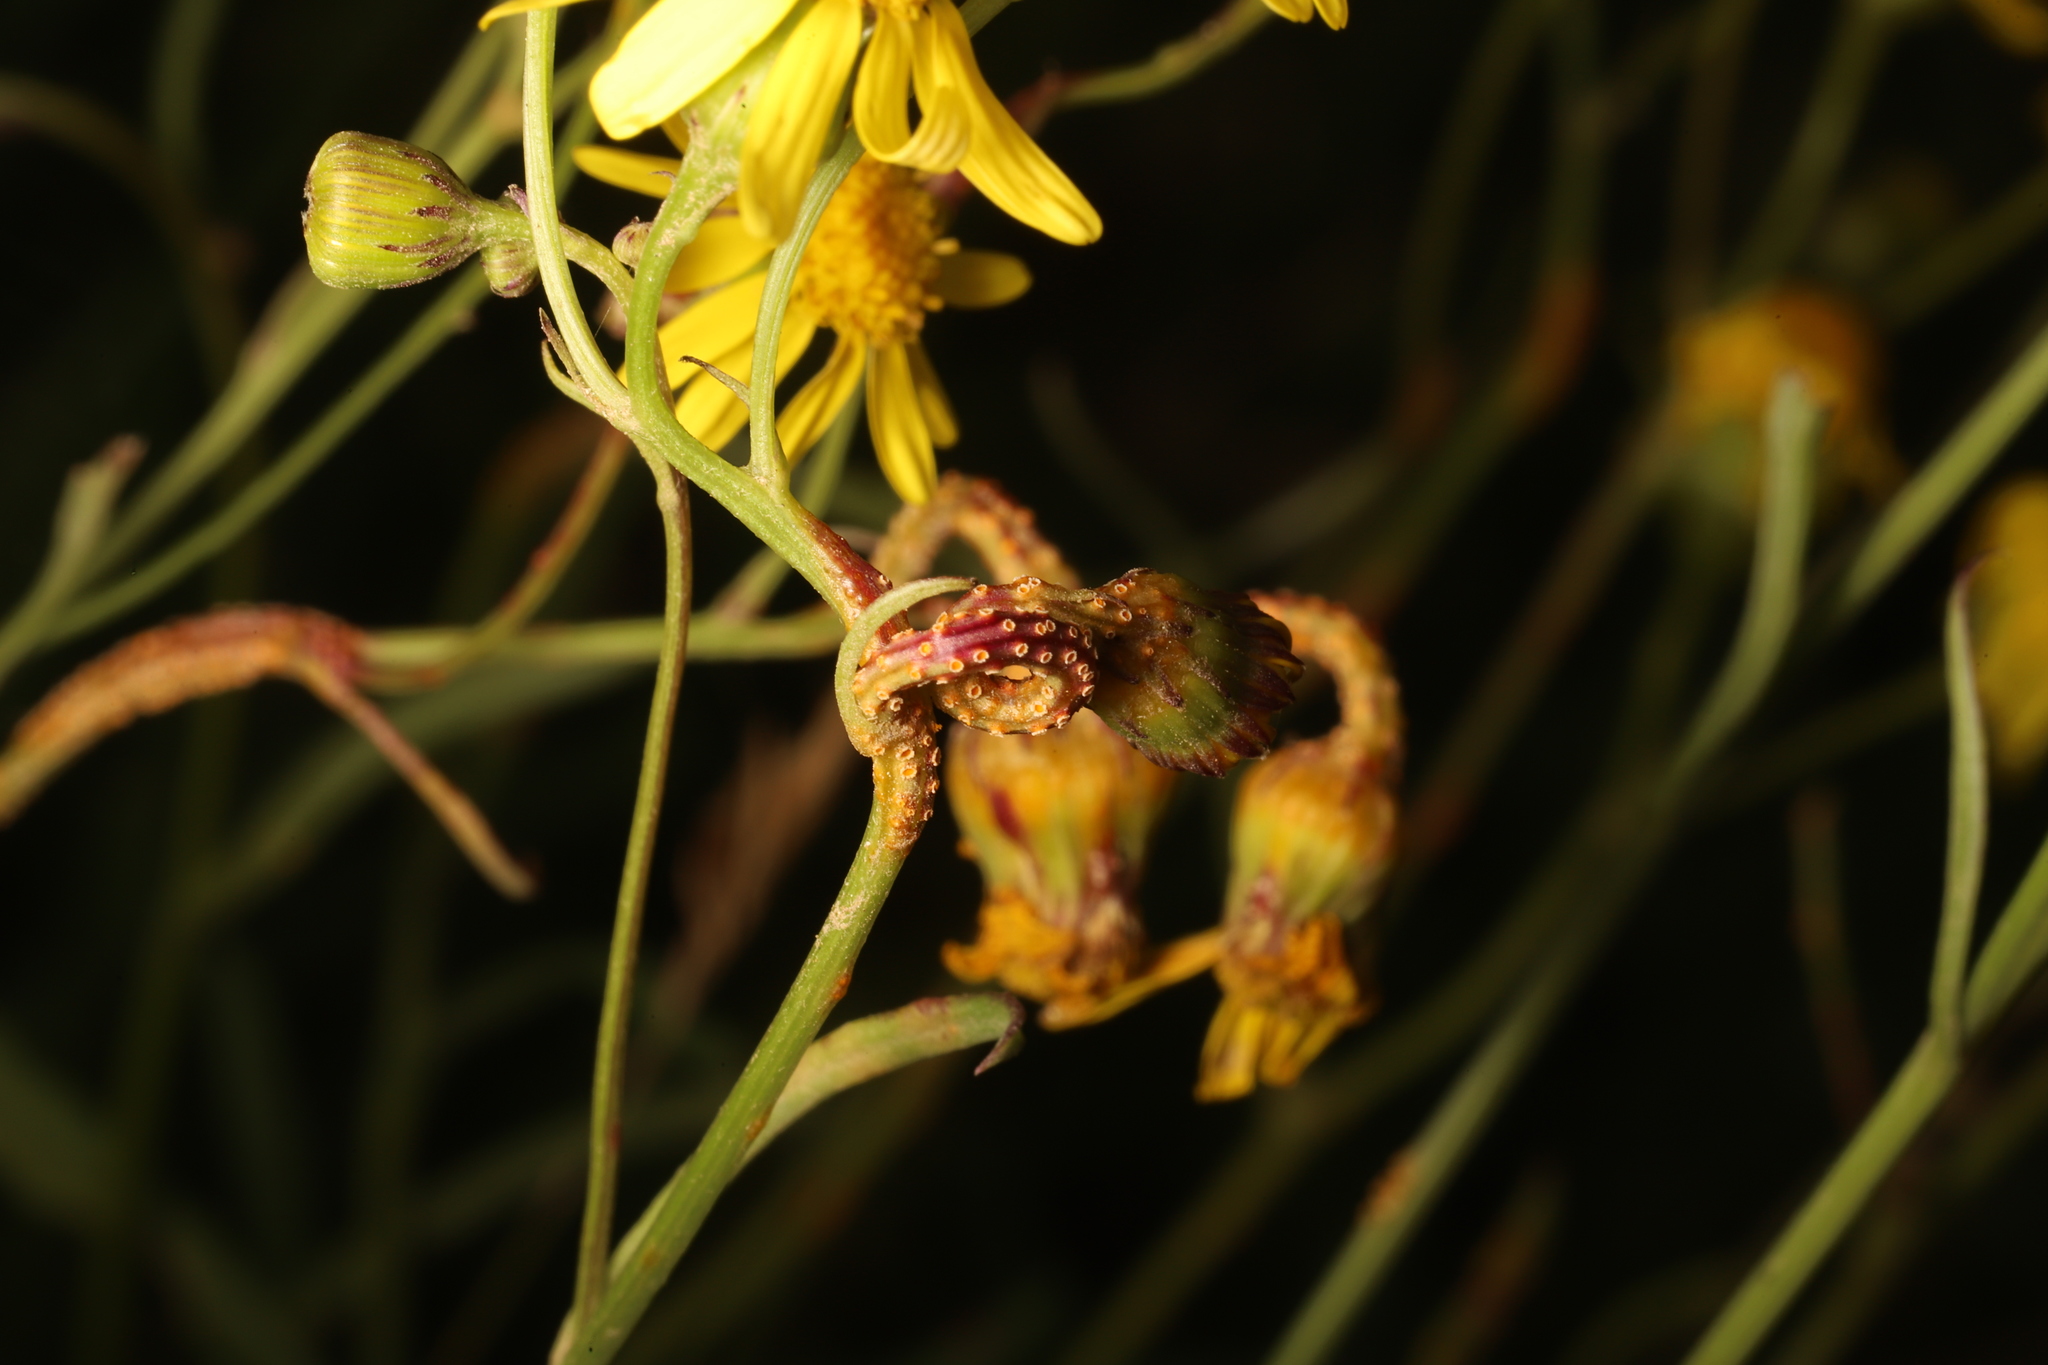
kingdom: Fungi
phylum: Basidiomycota
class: Pucciniomycetes
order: Pucciniales
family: Pucciniaceae
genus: Puccinia
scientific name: Puccinia lagenophorae
